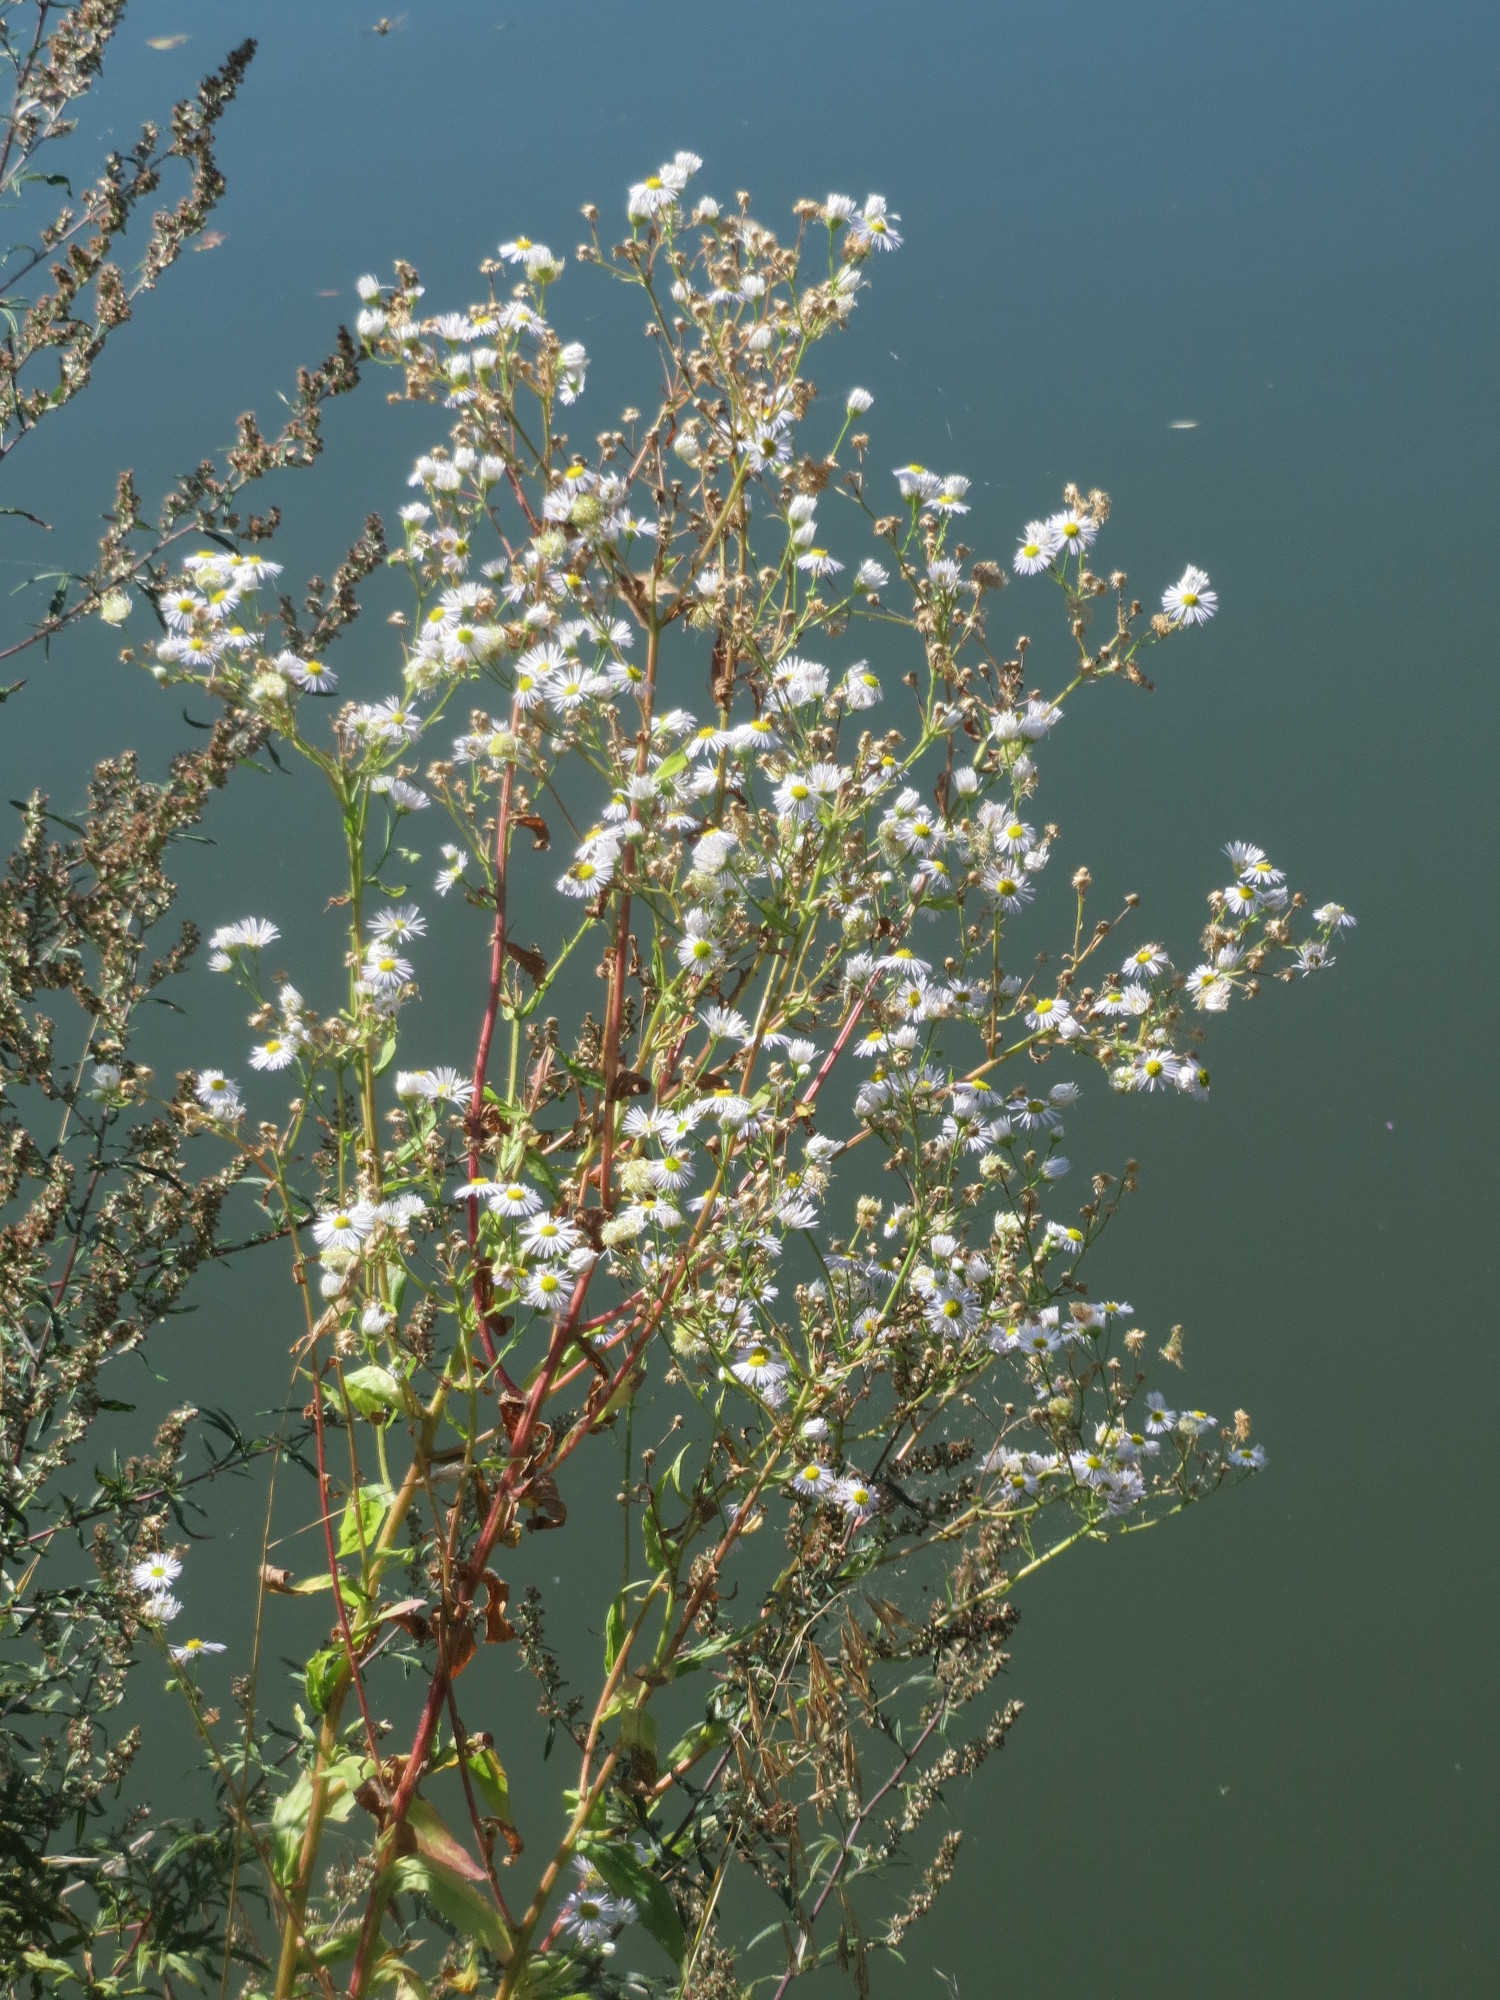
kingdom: Plantae
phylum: Tracheophyta
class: Magnoliopsida
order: Asterales
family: Asteraceae
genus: Erigeron
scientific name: Erigeron annuus
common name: Tall fleabane
